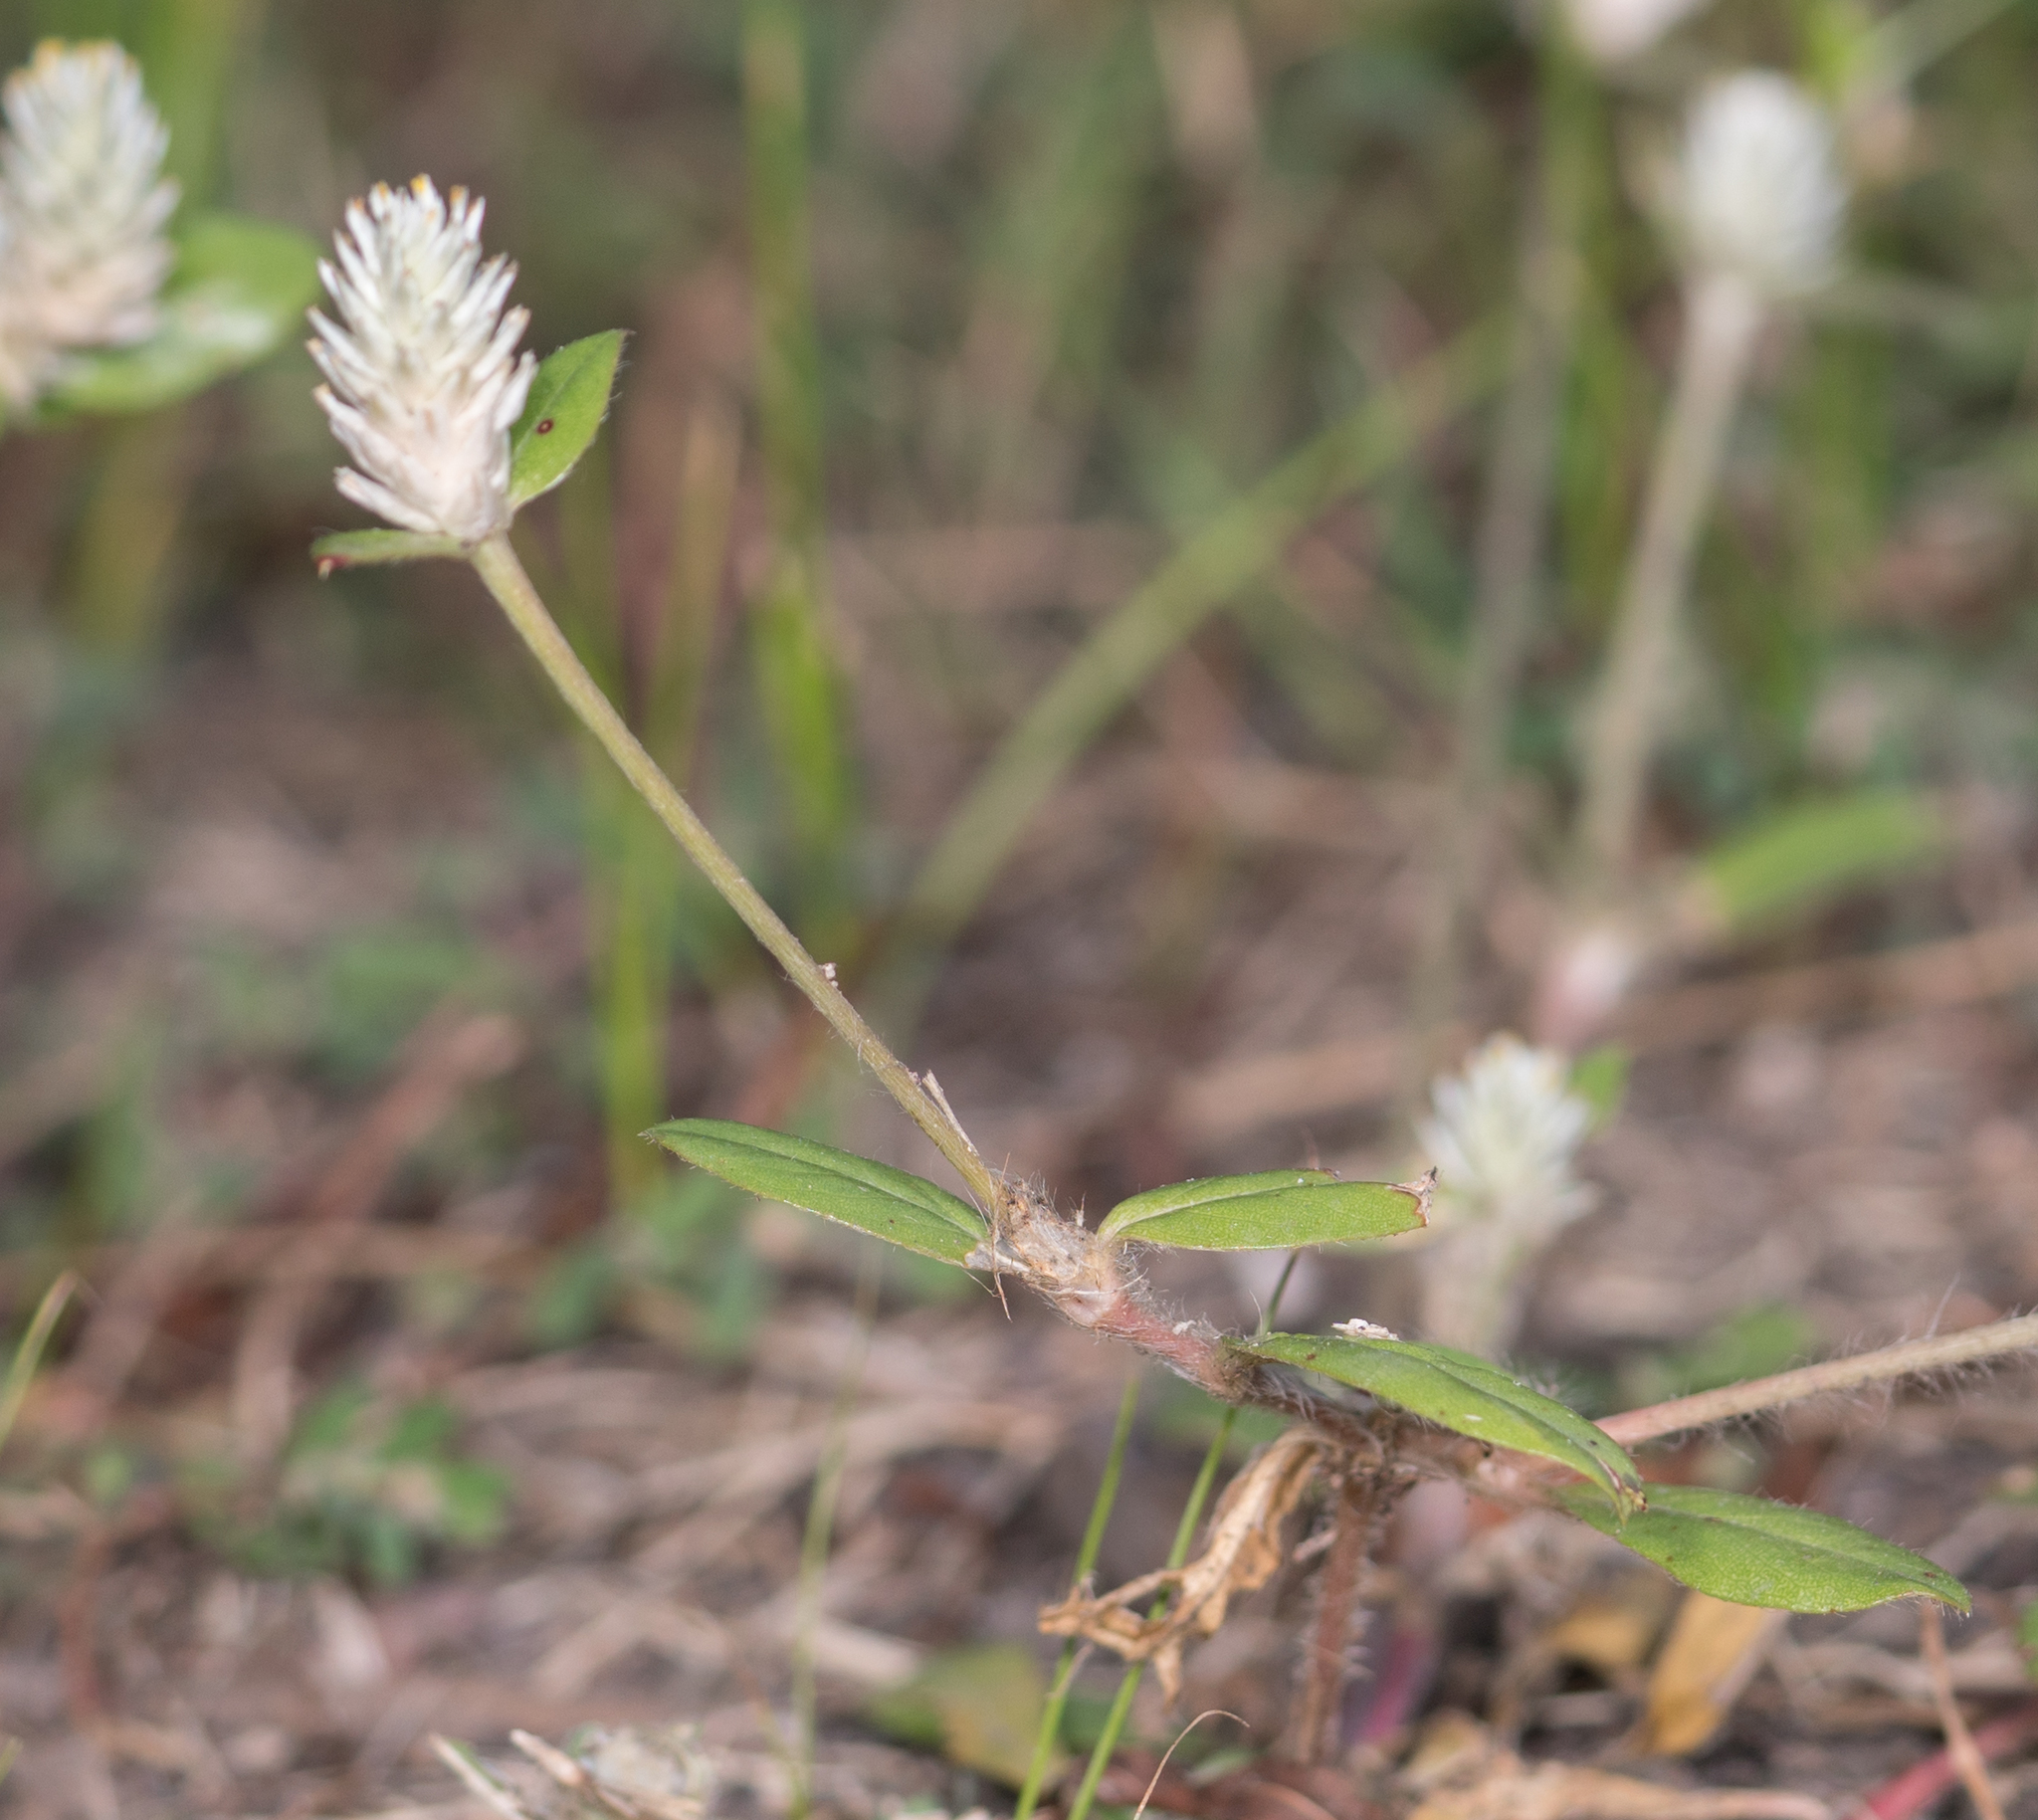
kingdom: Plantae
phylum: Tracheophyta
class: Magnoliopsida
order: Caryophyllales
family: Amaranthaceae
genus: Gomphrena
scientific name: Gomphrena serrata
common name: Arrasa con todo
